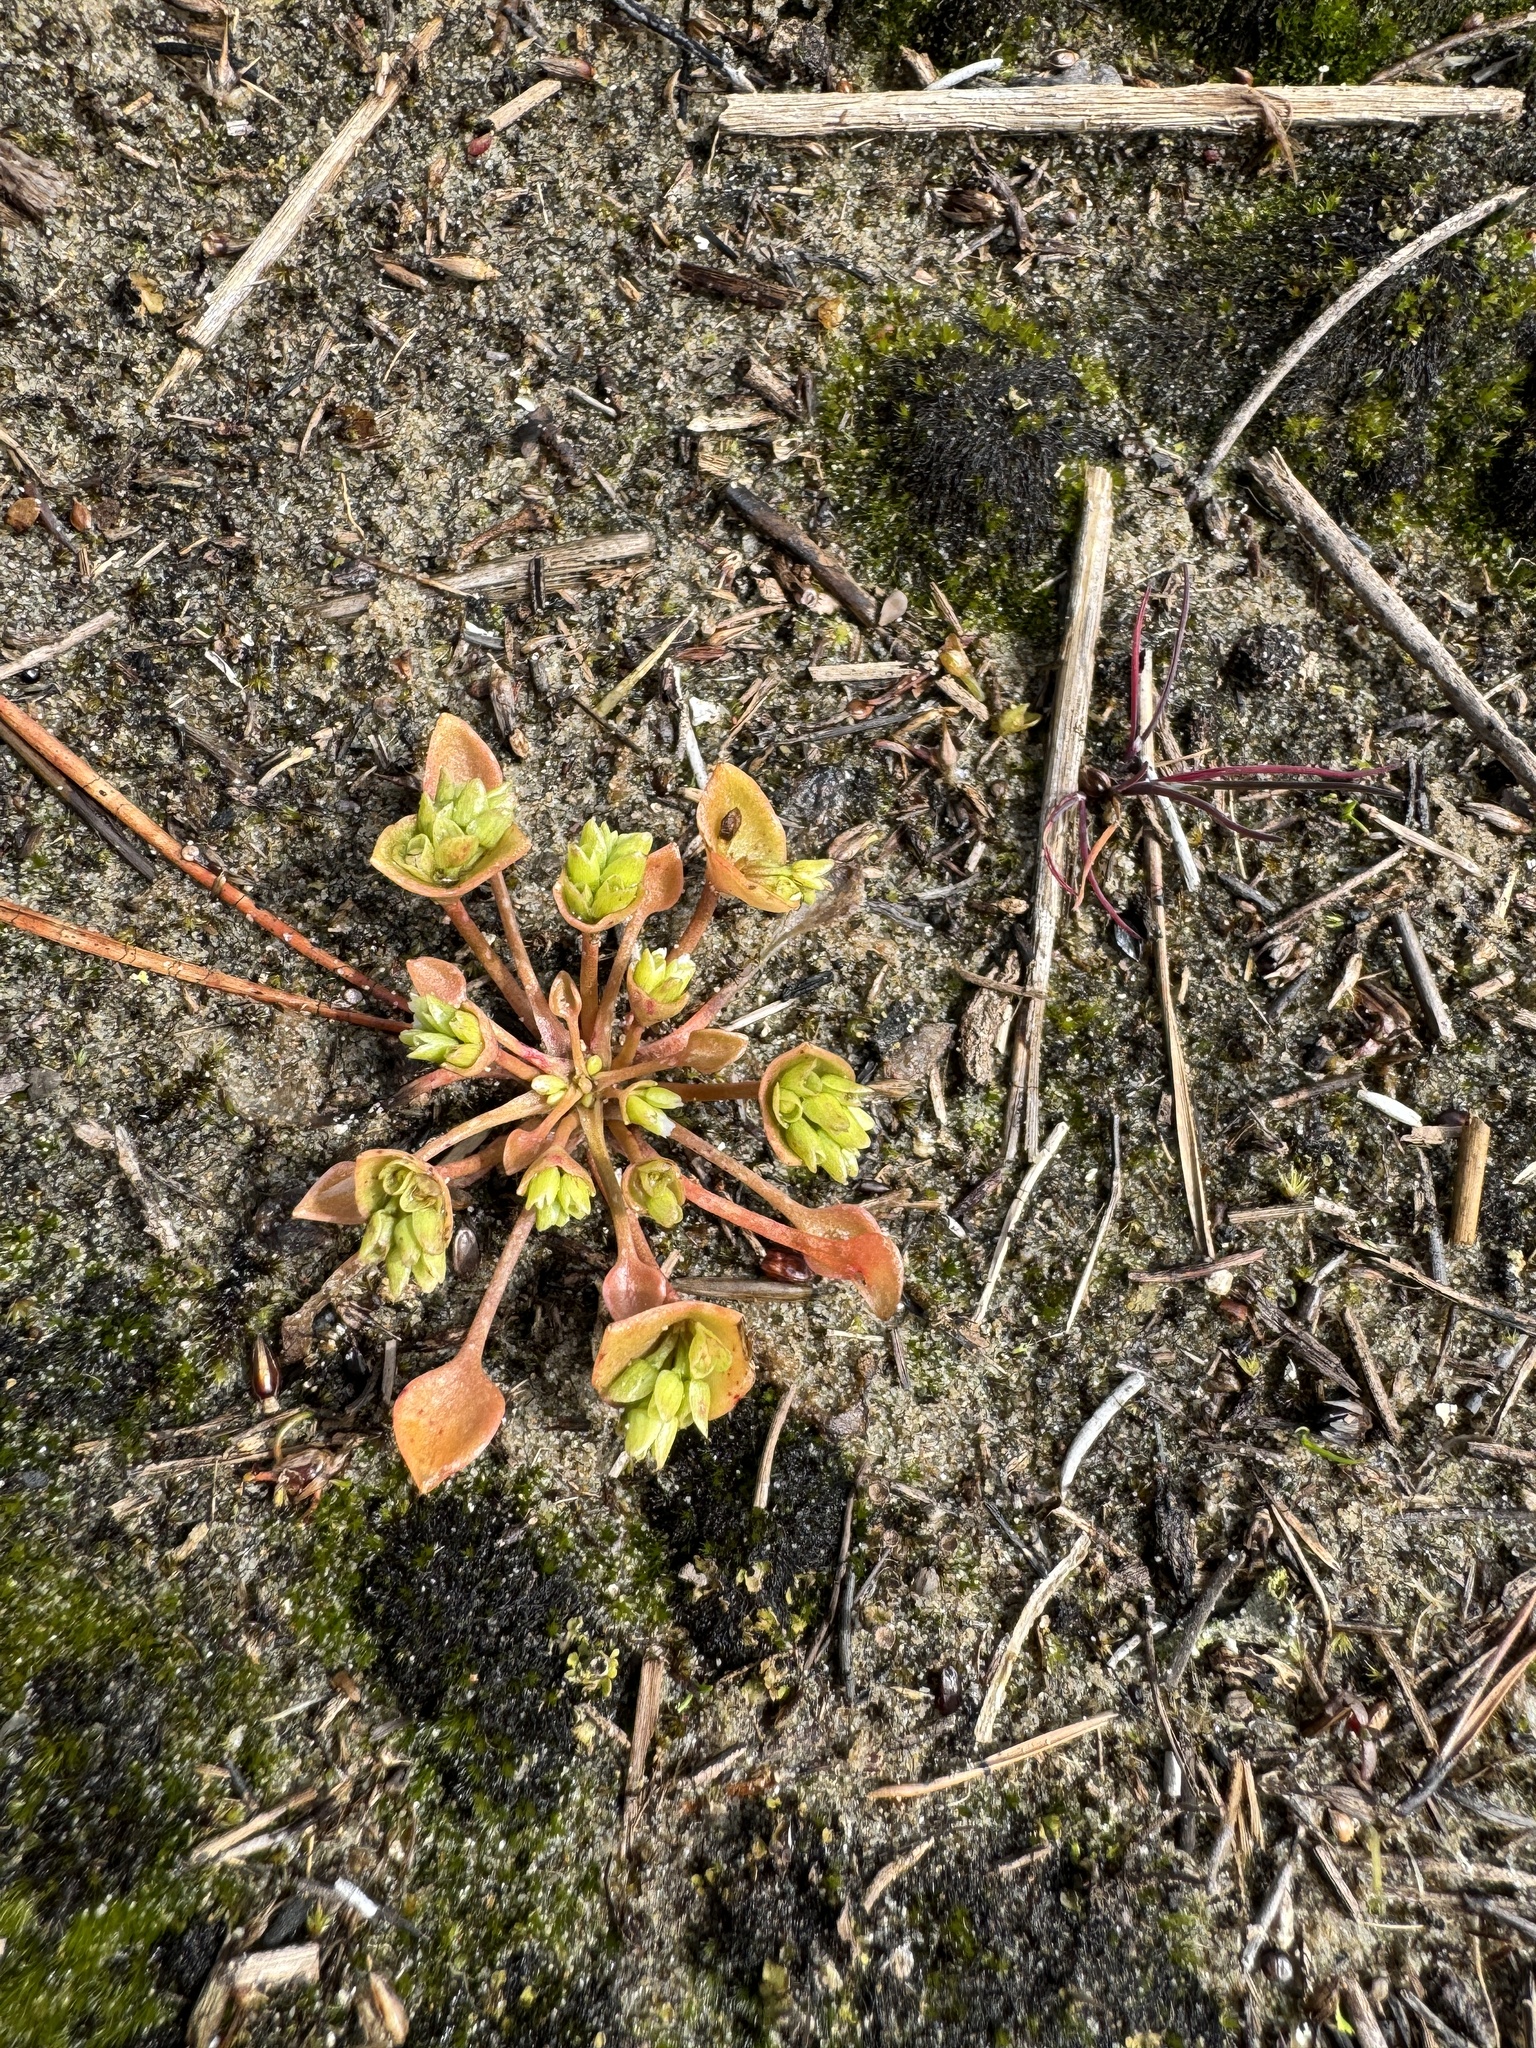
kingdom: Plantae
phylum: Tracheophyta
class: Magnoliopsida
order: Caryophyllales
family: Montiaceae
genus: Claytonia
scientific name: Claytonia rubra
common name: Erubescent miner's-lettuce
